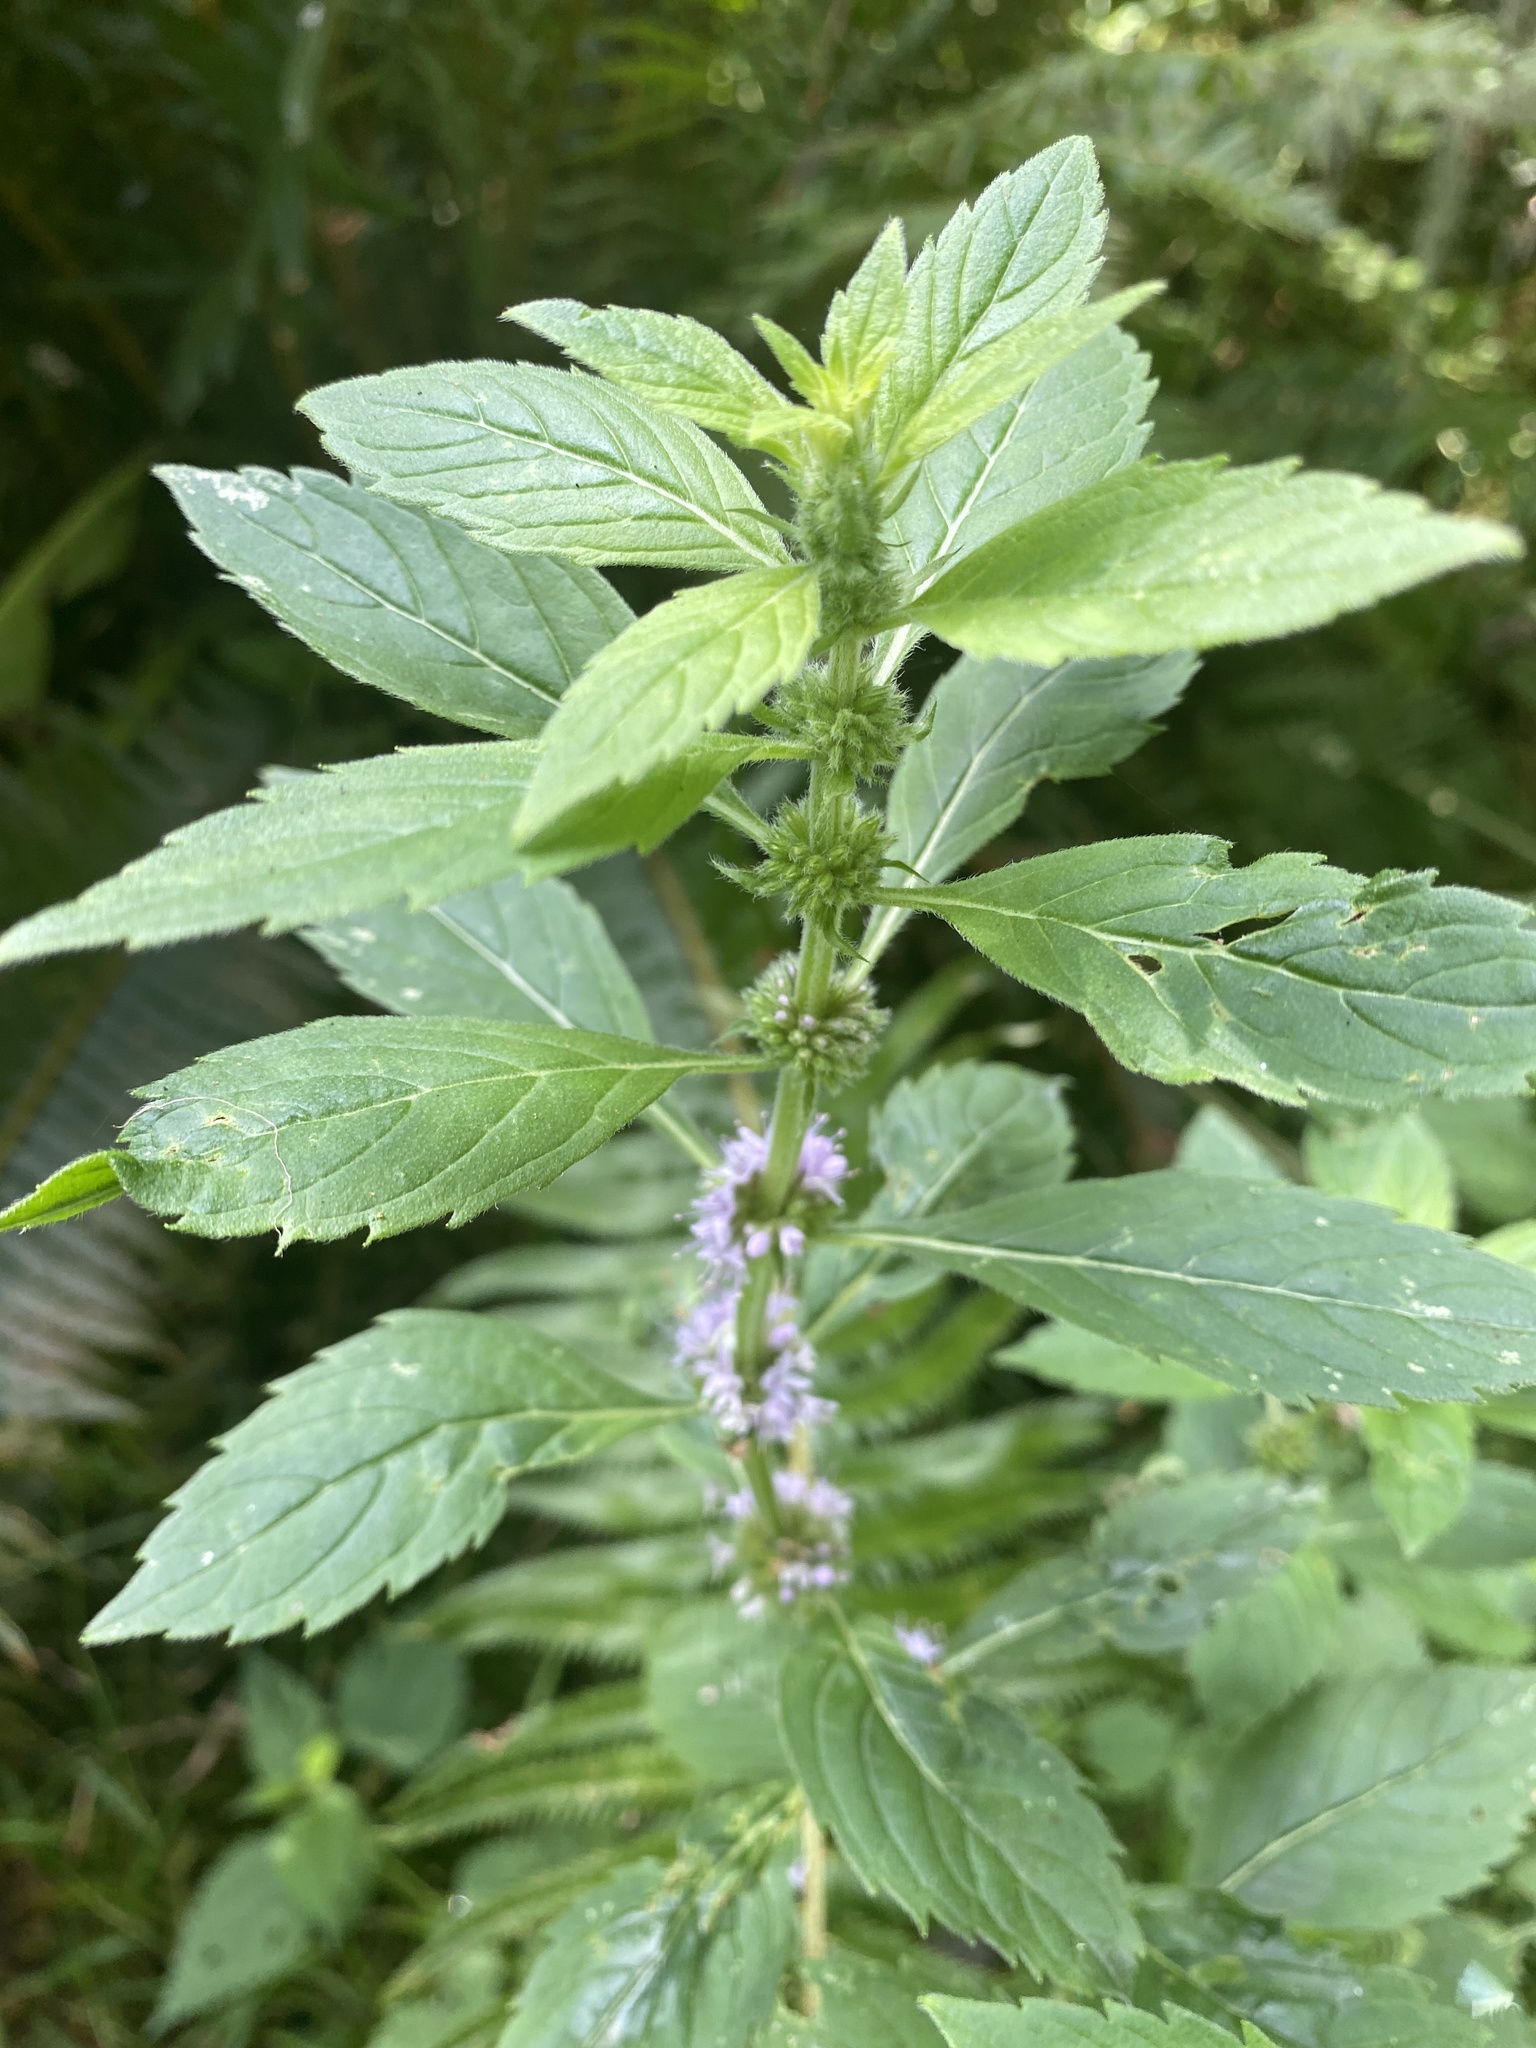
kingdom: Plantae
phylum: Tracheophyta
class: Magnoliopsida
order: Lamiales
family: Lamiaceae
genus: Mentha
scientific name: Mentha canadensis
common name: American corn mint
